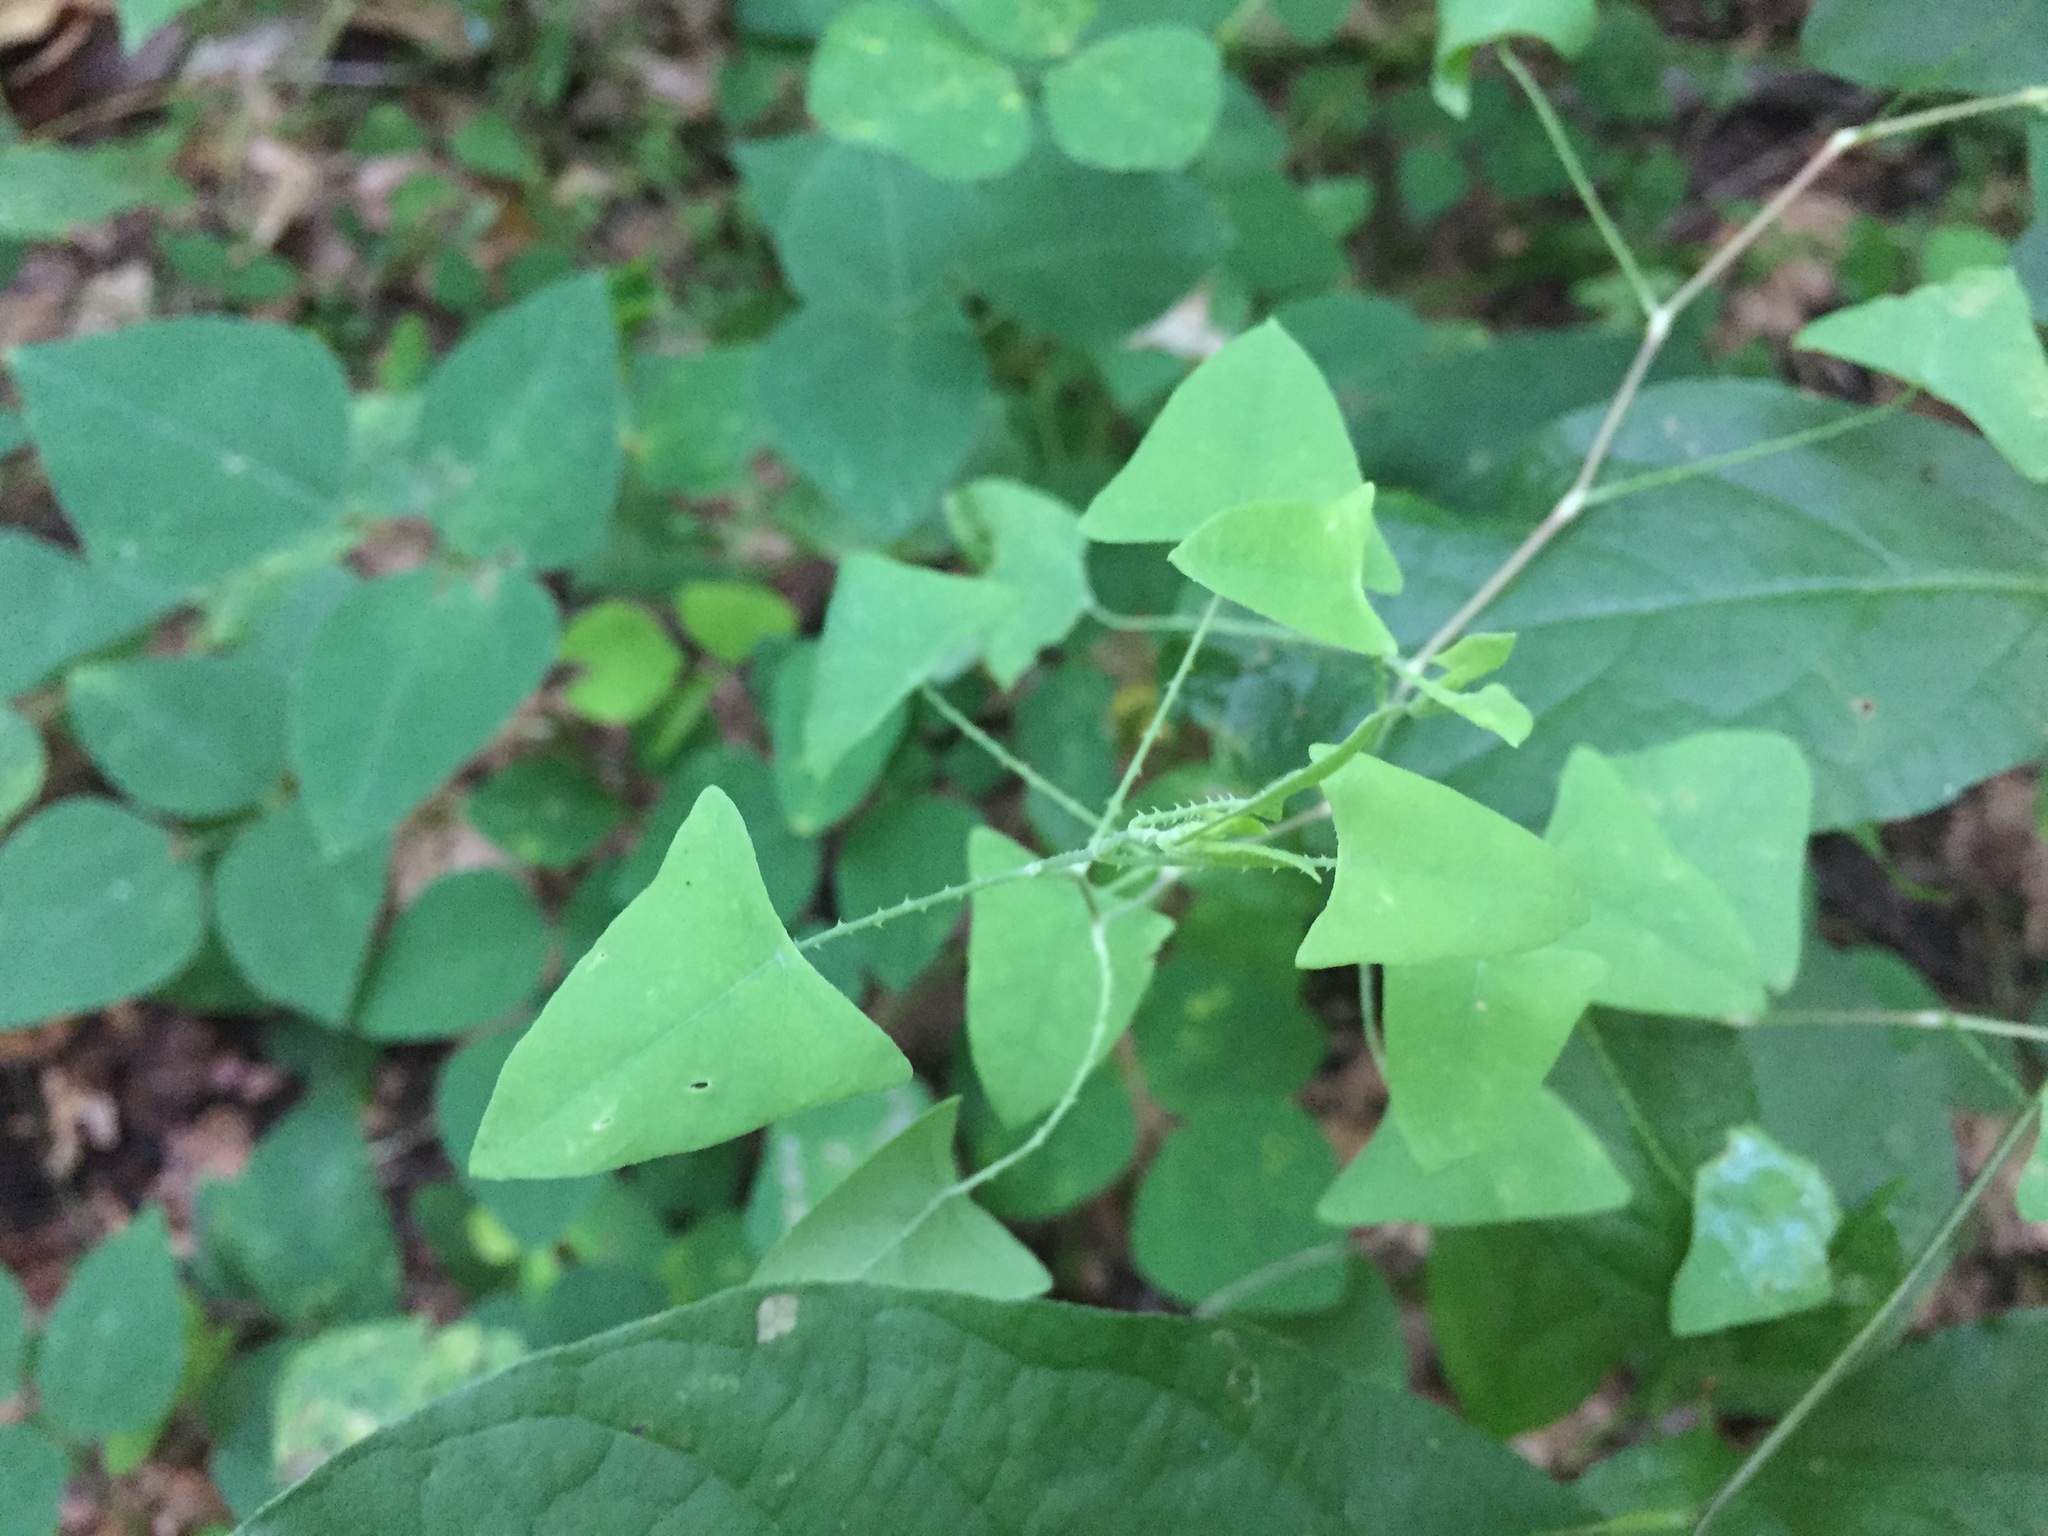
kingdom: Plantae
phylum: Tracheophyta
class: Magnoliopsida
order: Caryophyllales
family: Polygonaceae
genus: Persicaria
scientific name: Persicaria perfoliata
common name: Asiatic tearthumb
